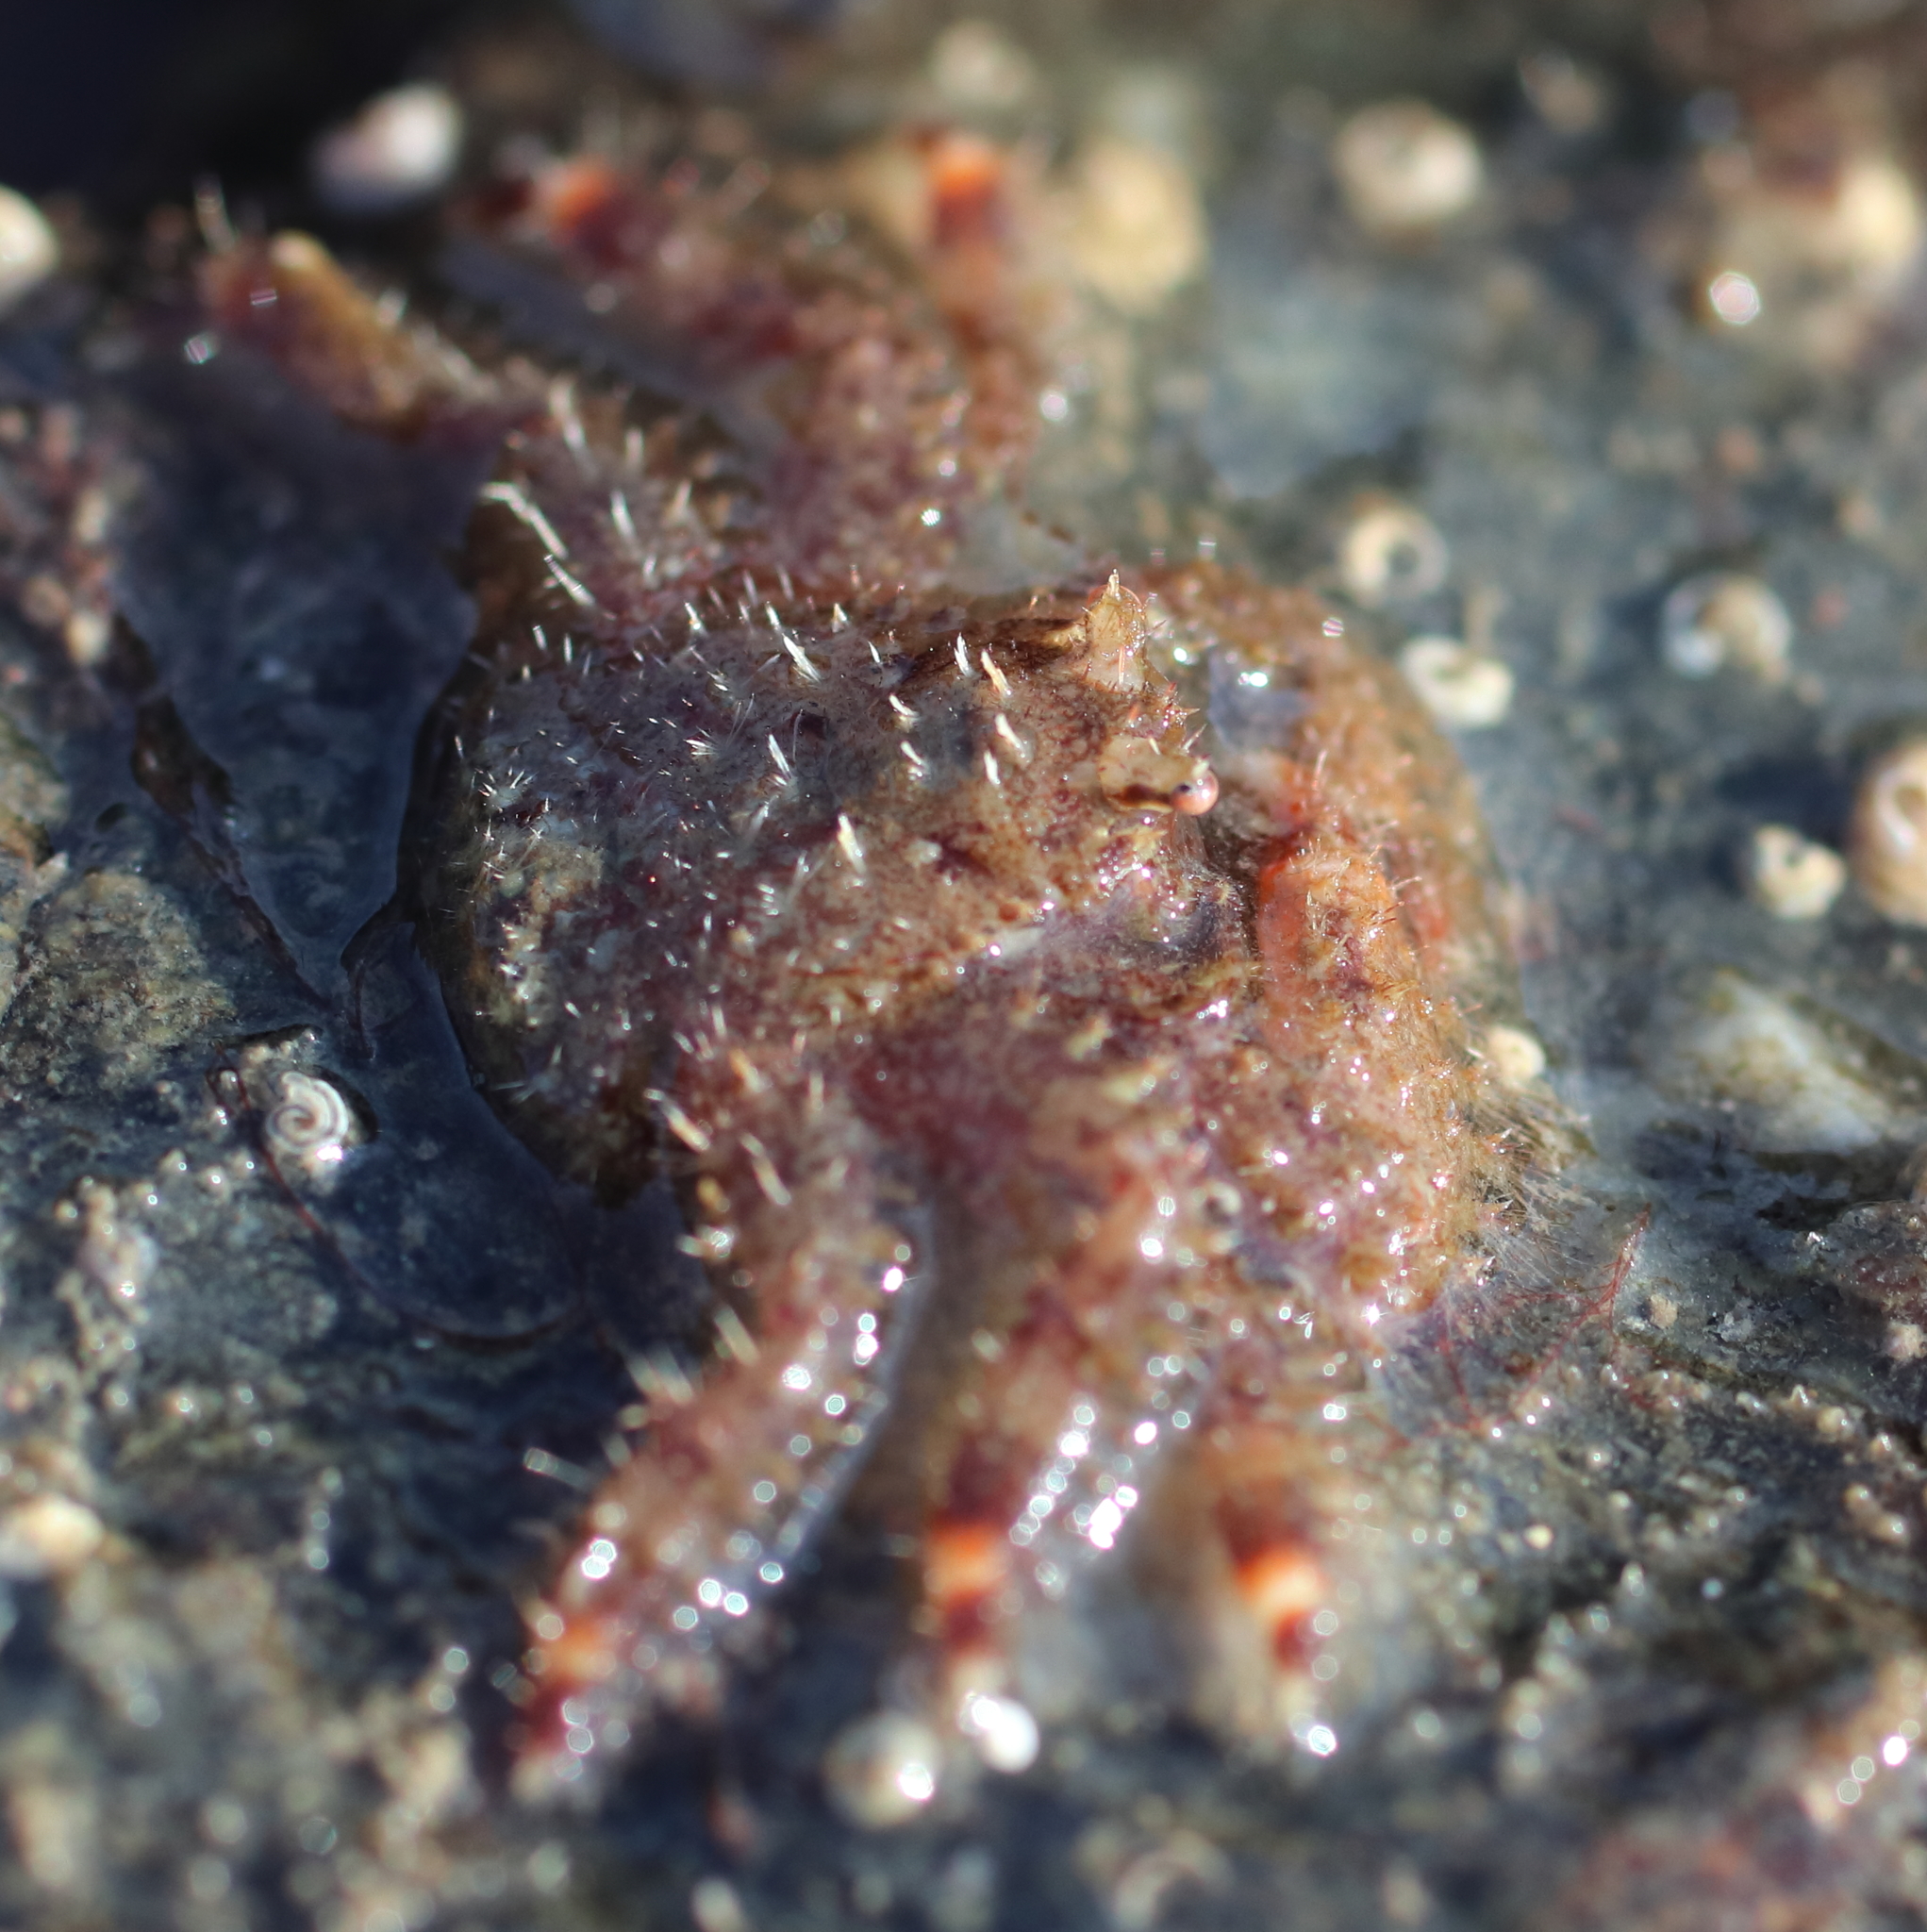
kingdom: Animalia
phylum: Arthropoda
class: Malacostraca
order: Decapoda
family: Hapalogastridae
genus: Hapalogaster
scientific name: Hapalogaster mertensii
